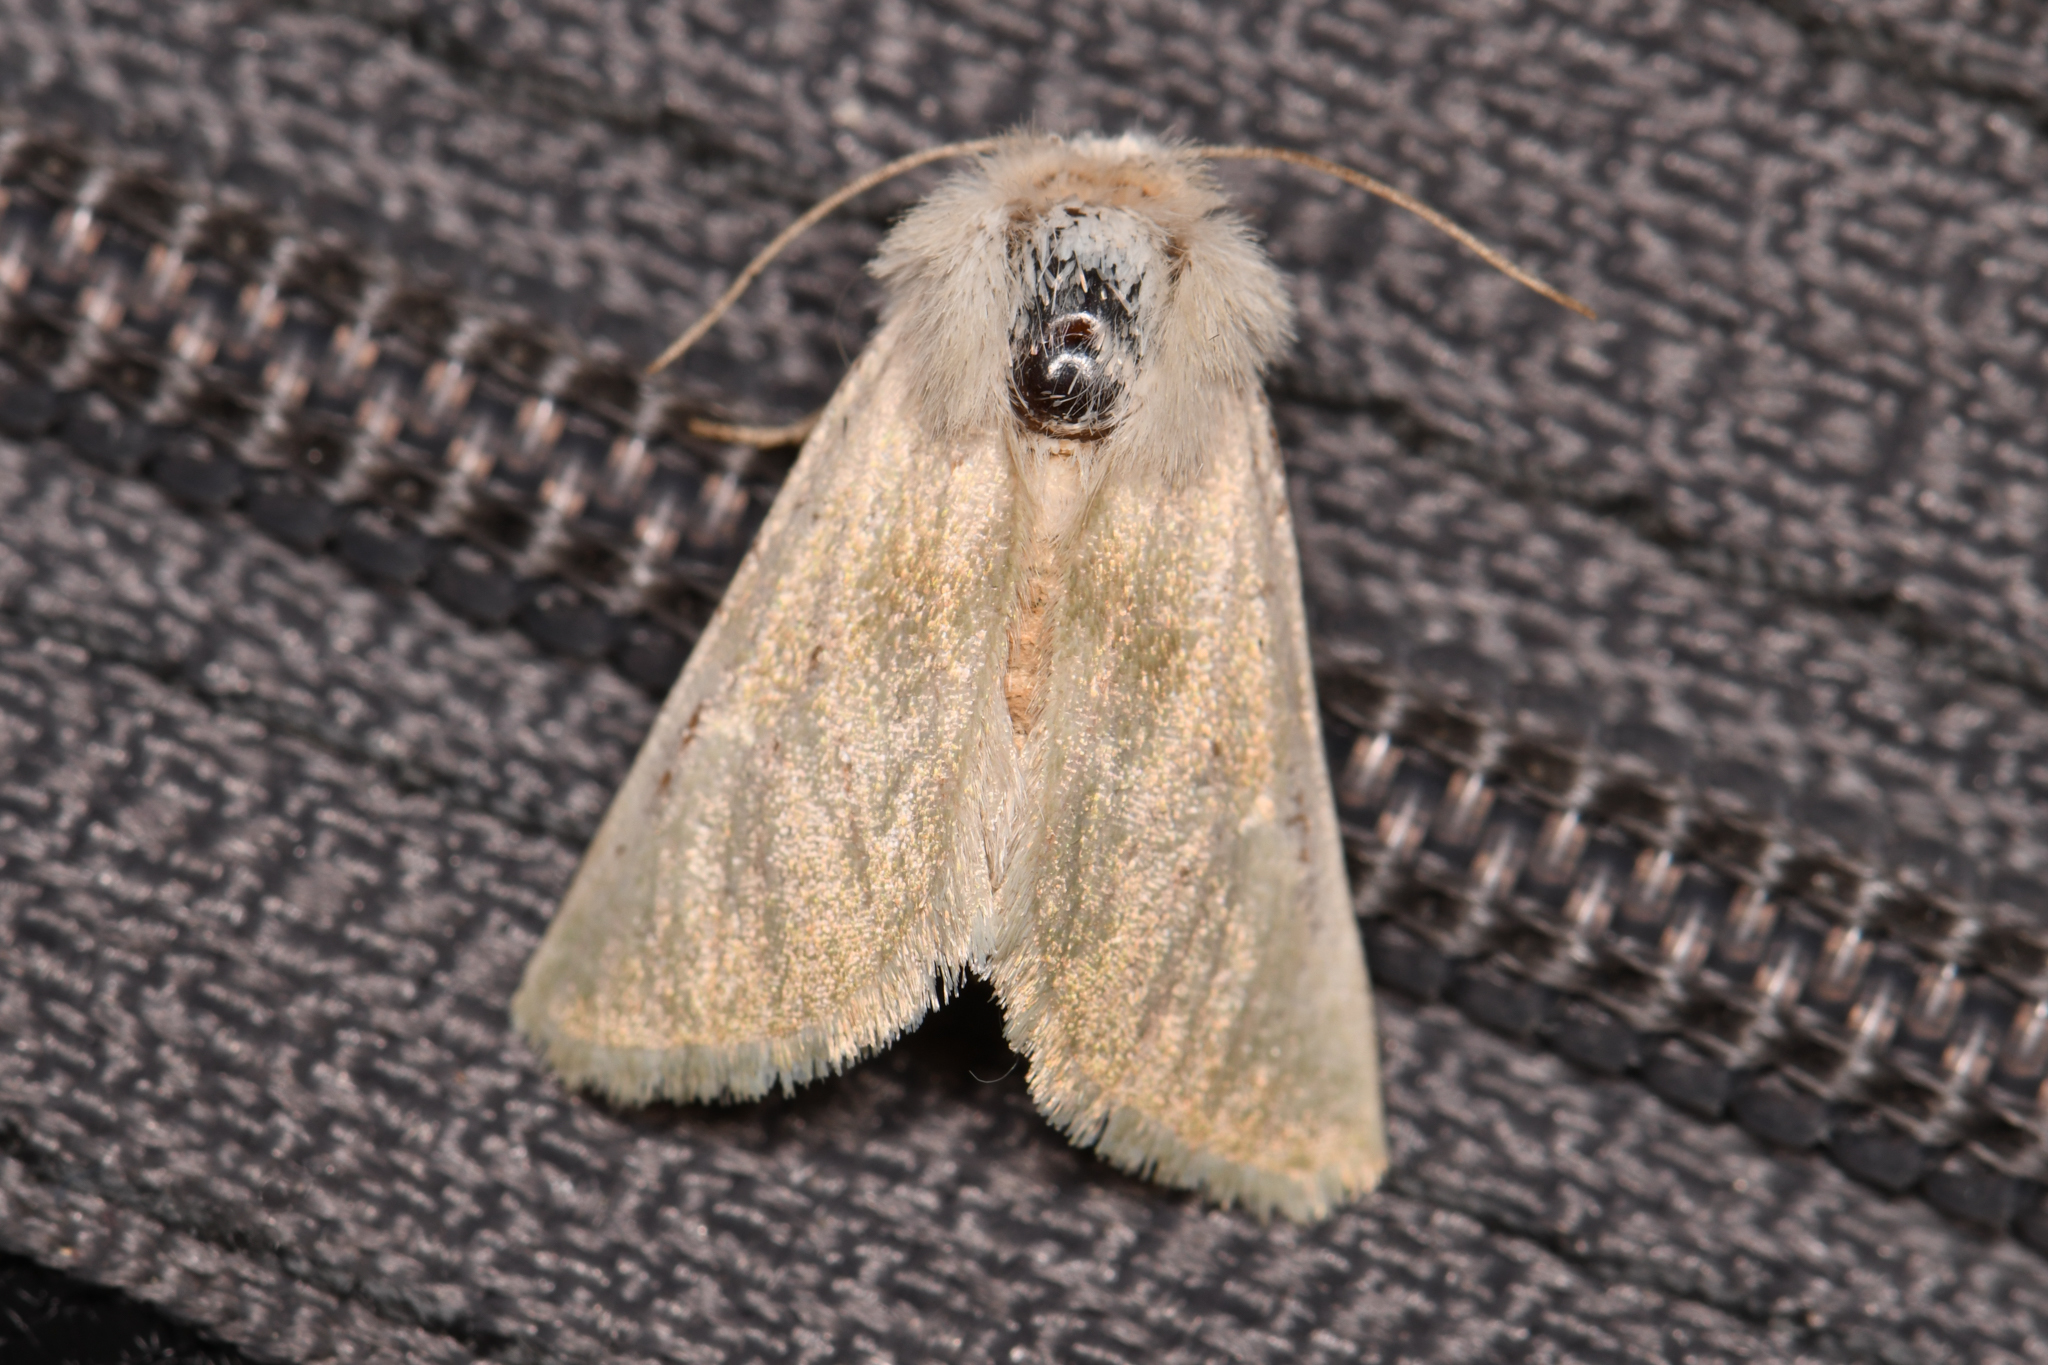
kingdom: Animalia
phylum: Arthropoda
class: Insecta
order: Lepidoptera
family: Noctuidae
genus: Nocloa
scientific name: Nocloa pallens
